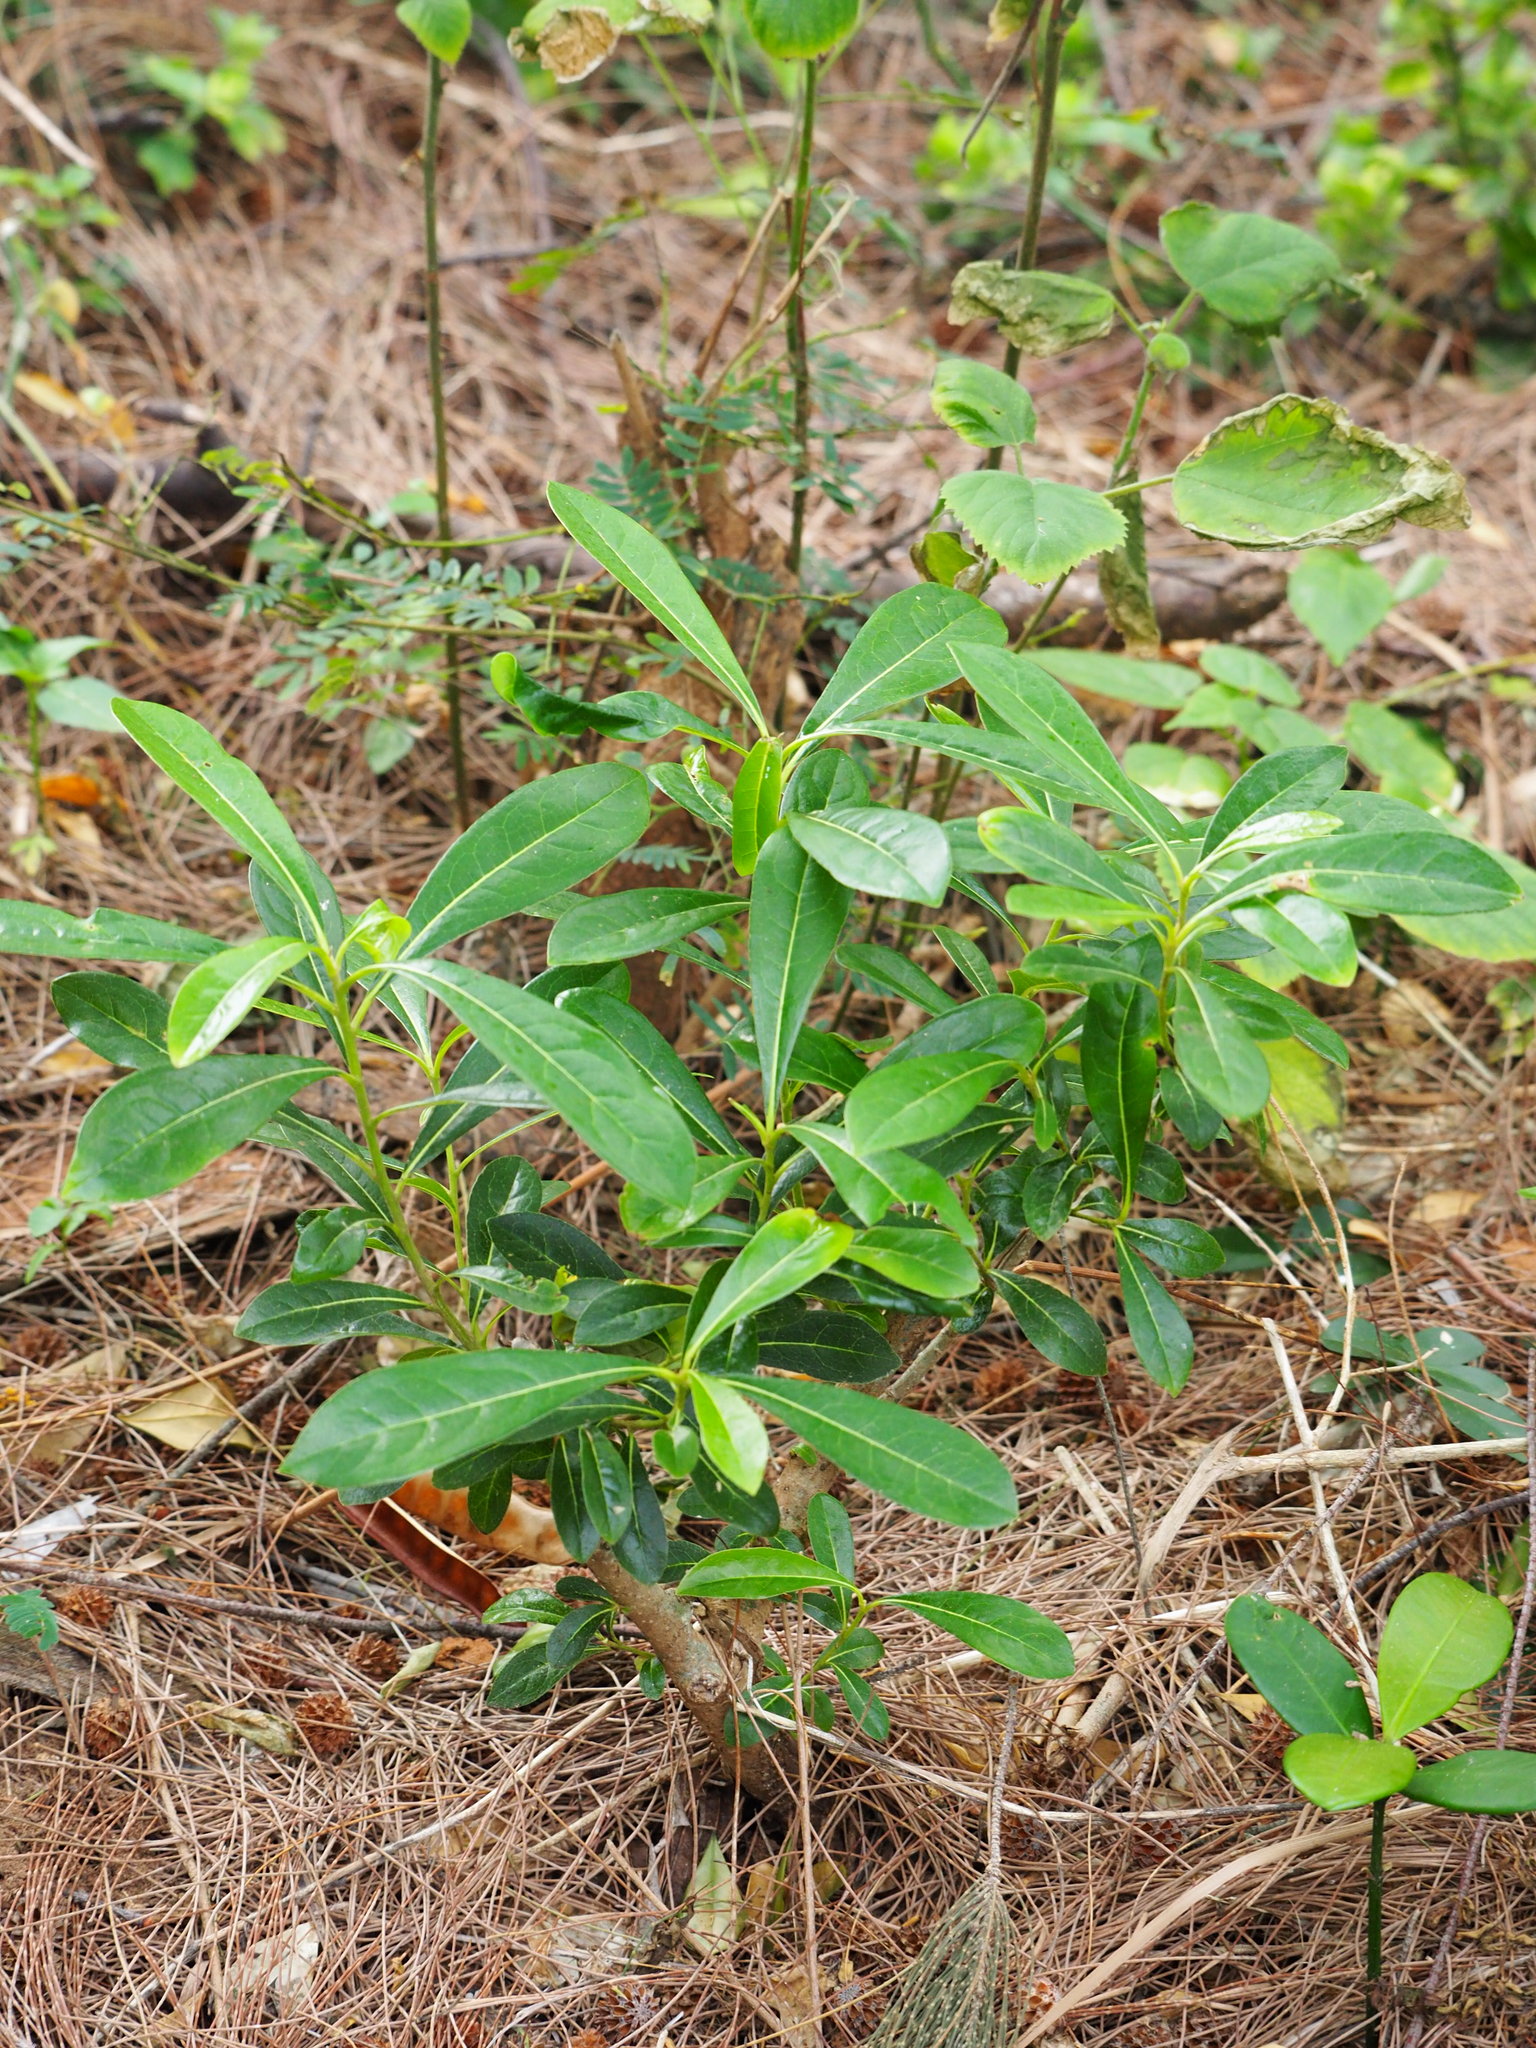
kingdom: Plantae
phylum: Tracheophyta
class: Magnoliopsida
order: Apiales
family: Pittosporaceae
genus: Pittosporum
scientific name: Pittosporum pentandrum
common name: Taiwanese cheesewood
